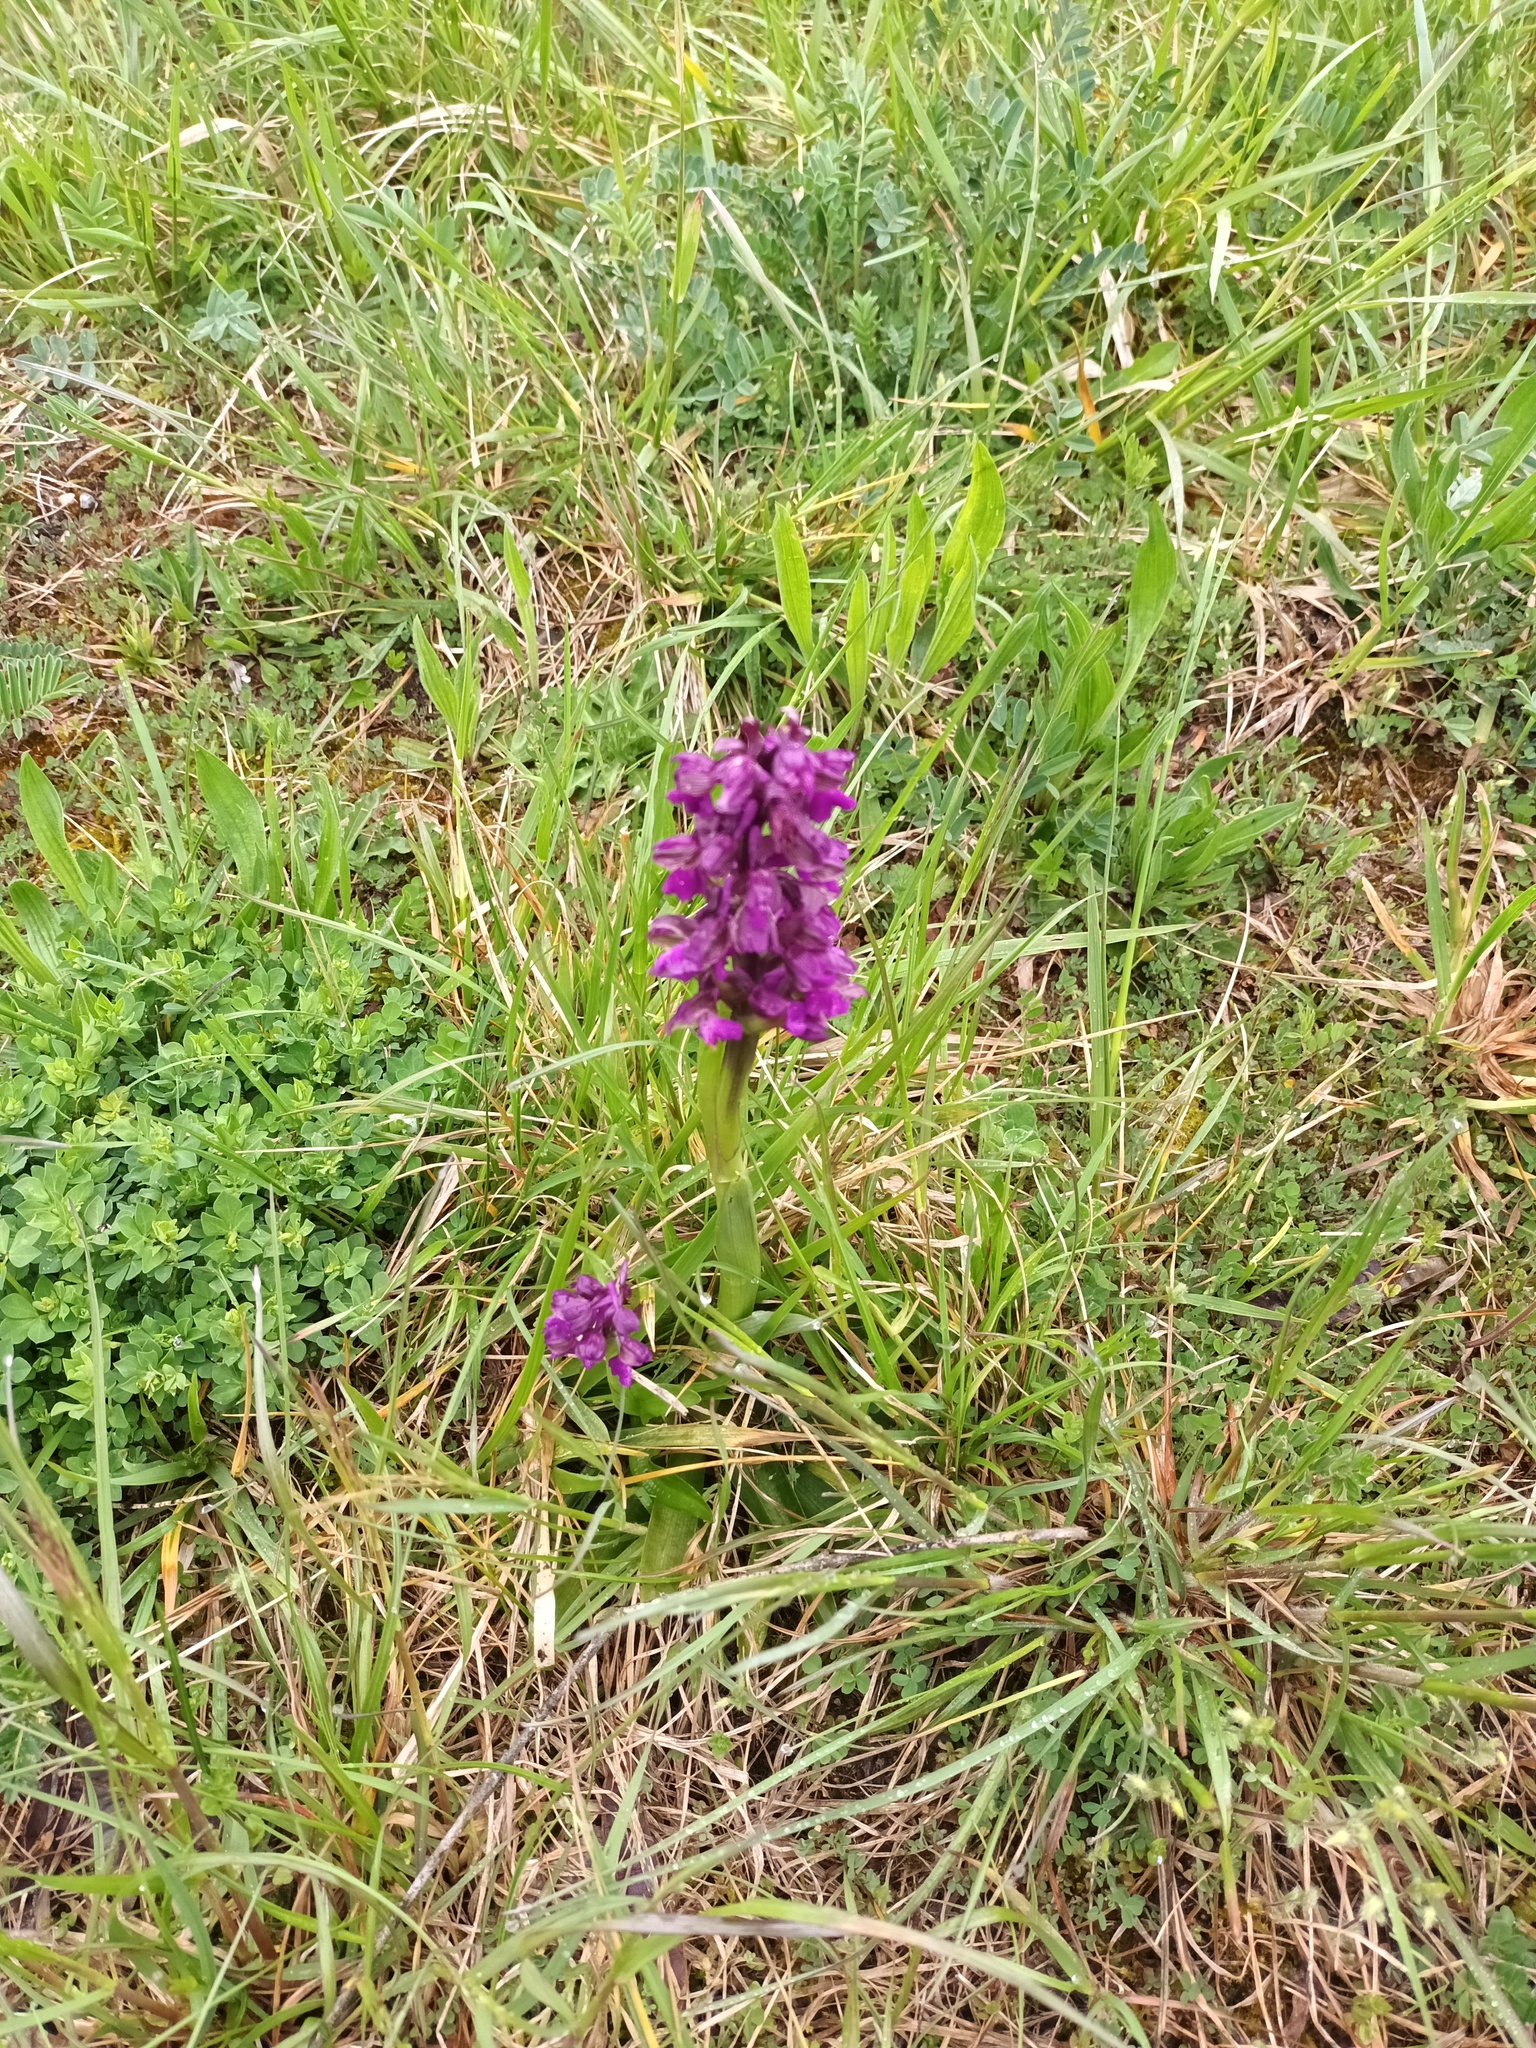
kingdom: Plantae
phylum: Tracheophyta
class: Liliopsida
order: Asparagales
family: Orchidaceae
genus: Anacamptis
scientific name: Anacamptis morio
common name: Green-winged orchid
